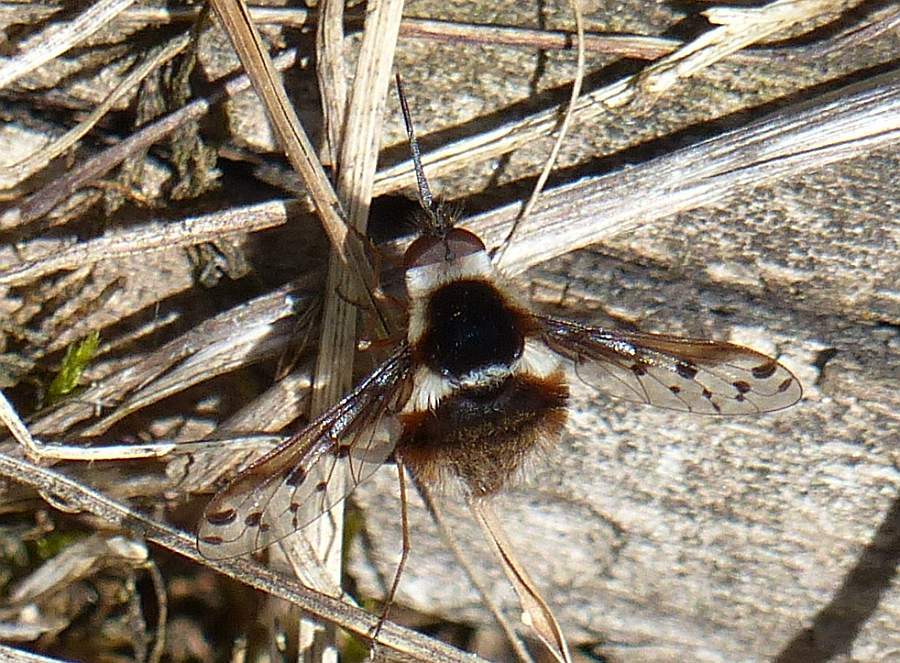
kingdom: Animalia
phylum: Arthropoda
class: Insecta
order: Diptera
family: Bombyliidae
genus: Bombylius
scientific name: Bombylius pygmaeus
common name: Pygmy bee fly
